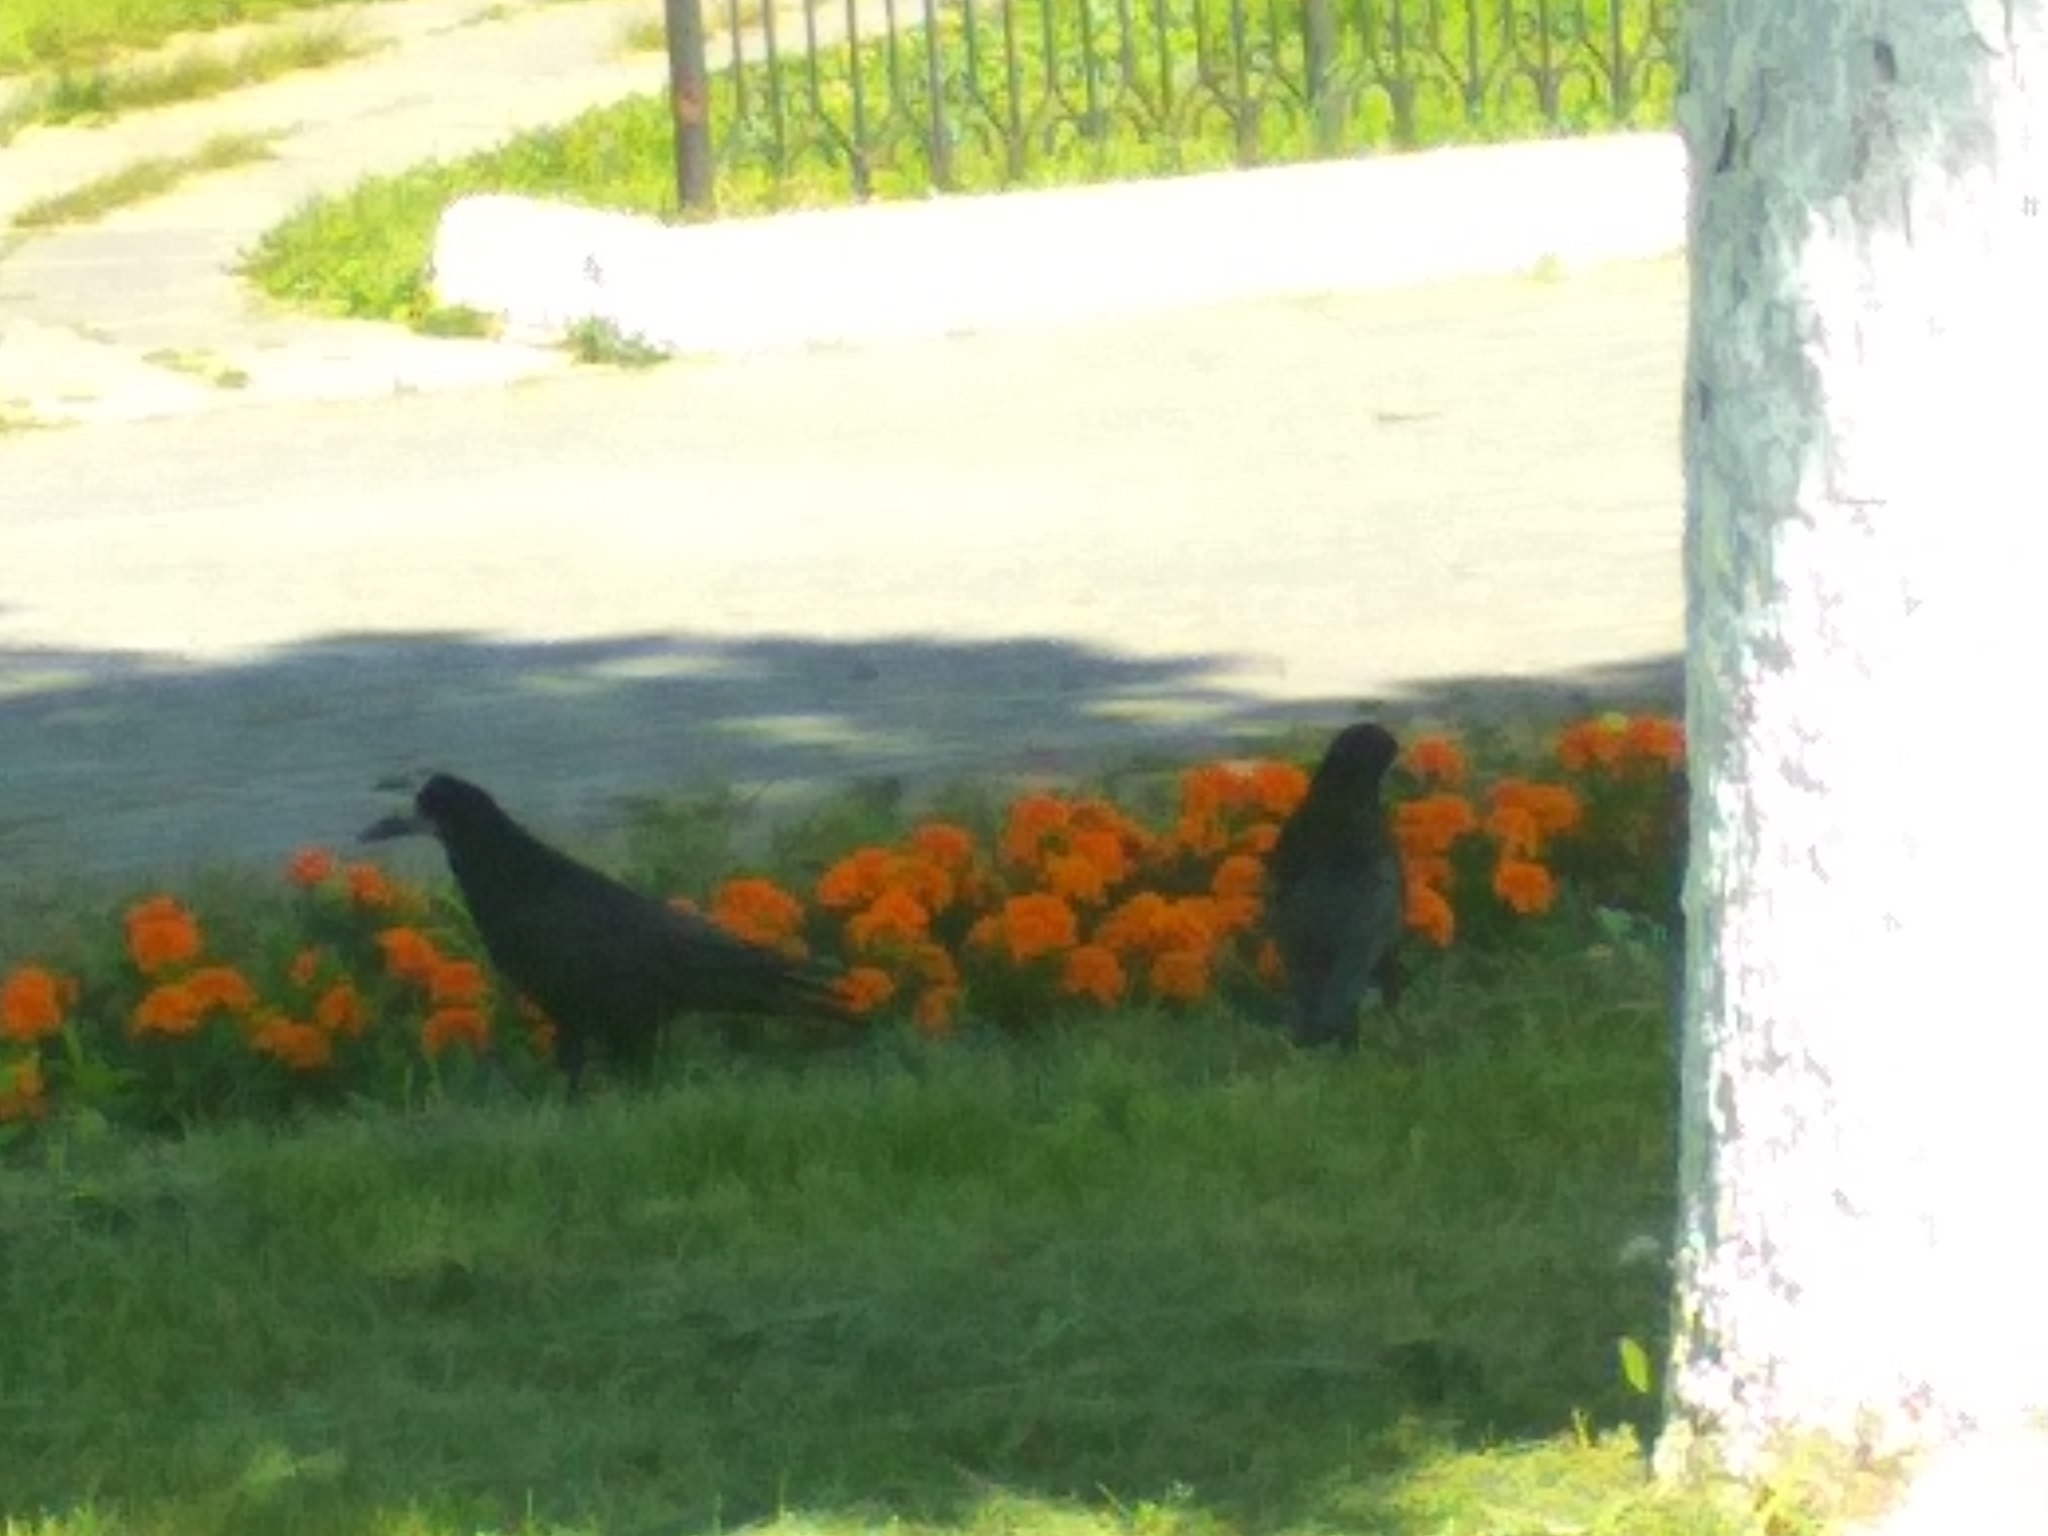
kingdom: Animalia
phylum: Chordata
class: Aves
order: Passeriformes
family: Corvidae
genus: Corvus
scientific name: Corvus frugilegus
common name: Rook
